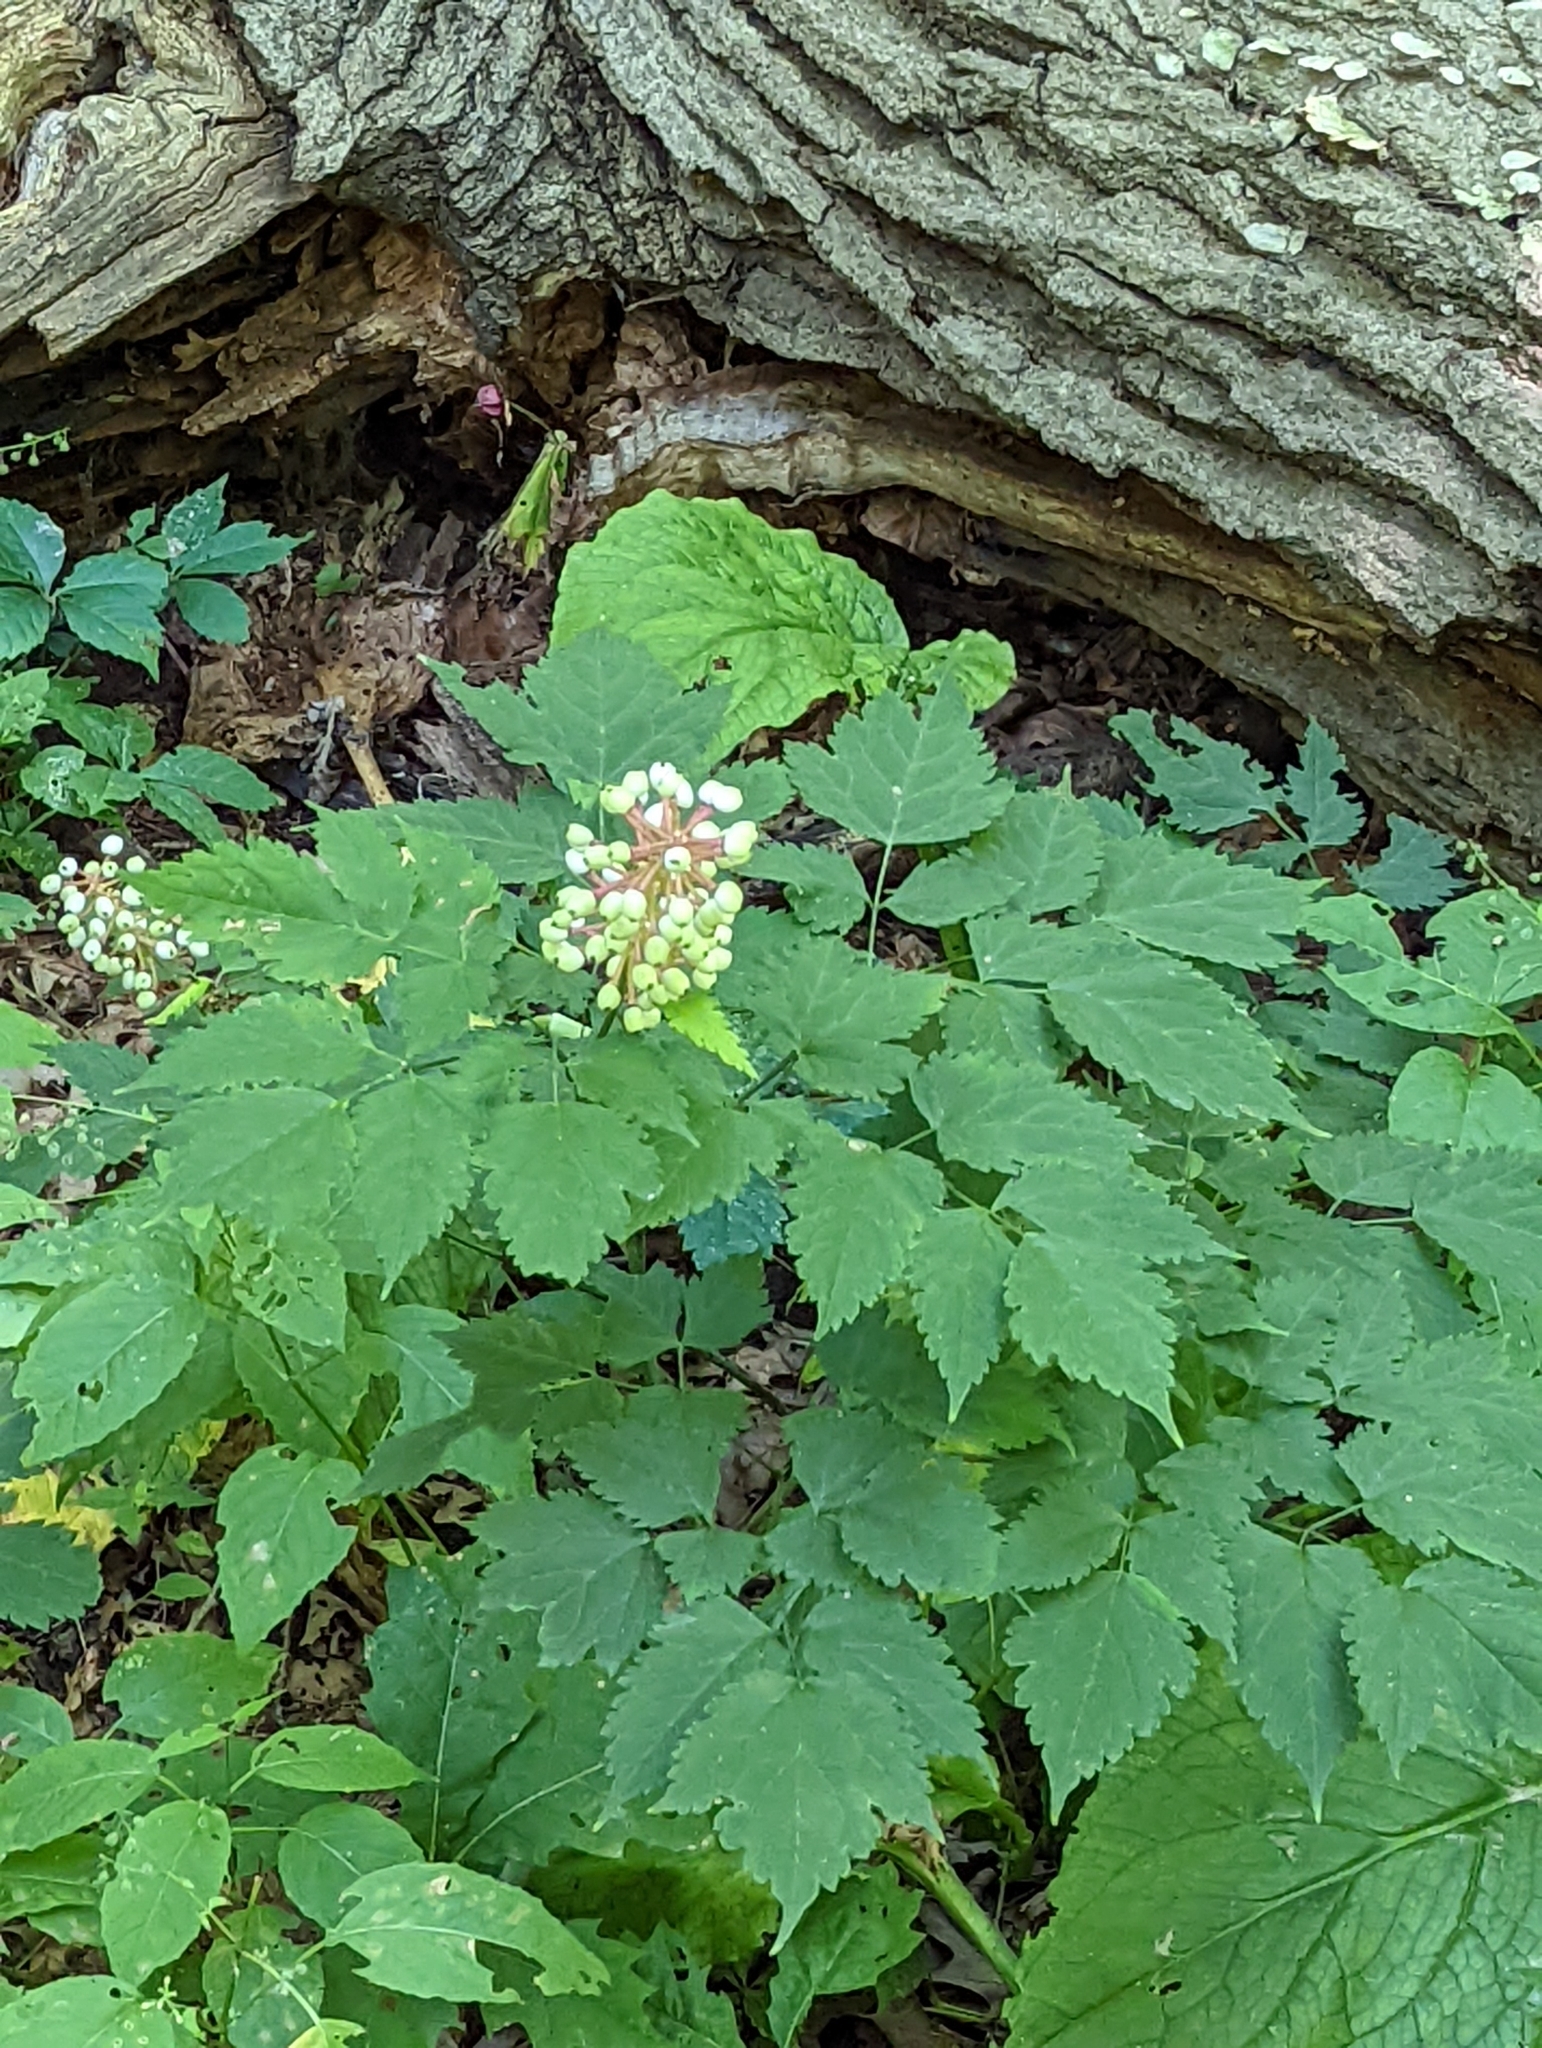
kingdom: Plantae
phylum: Tracheophyta
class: Magnoliopsida
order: Ranunculales
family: Ranunculaceae
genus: Actaea
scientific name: Actaea pachypoda
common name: Doll's-eyes
